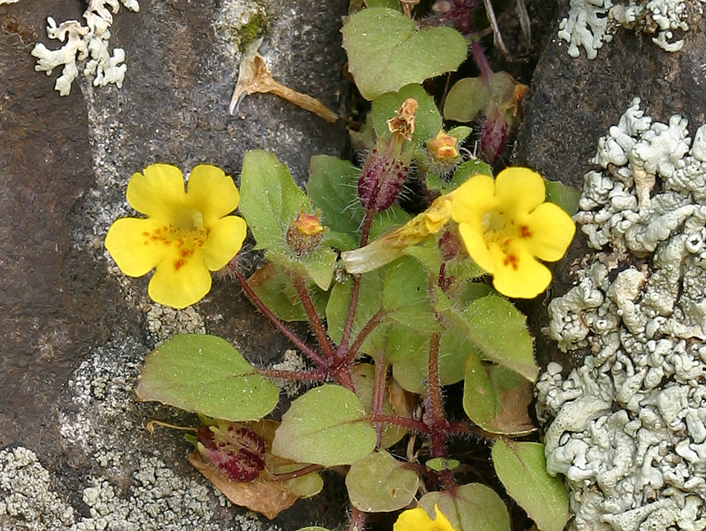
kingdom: Plantae
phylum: Tracheophyta
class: Magnoliopsida
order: Lamiales
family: Phrymaceae
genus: Erythranthe
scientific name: Erythranthe geniculata
